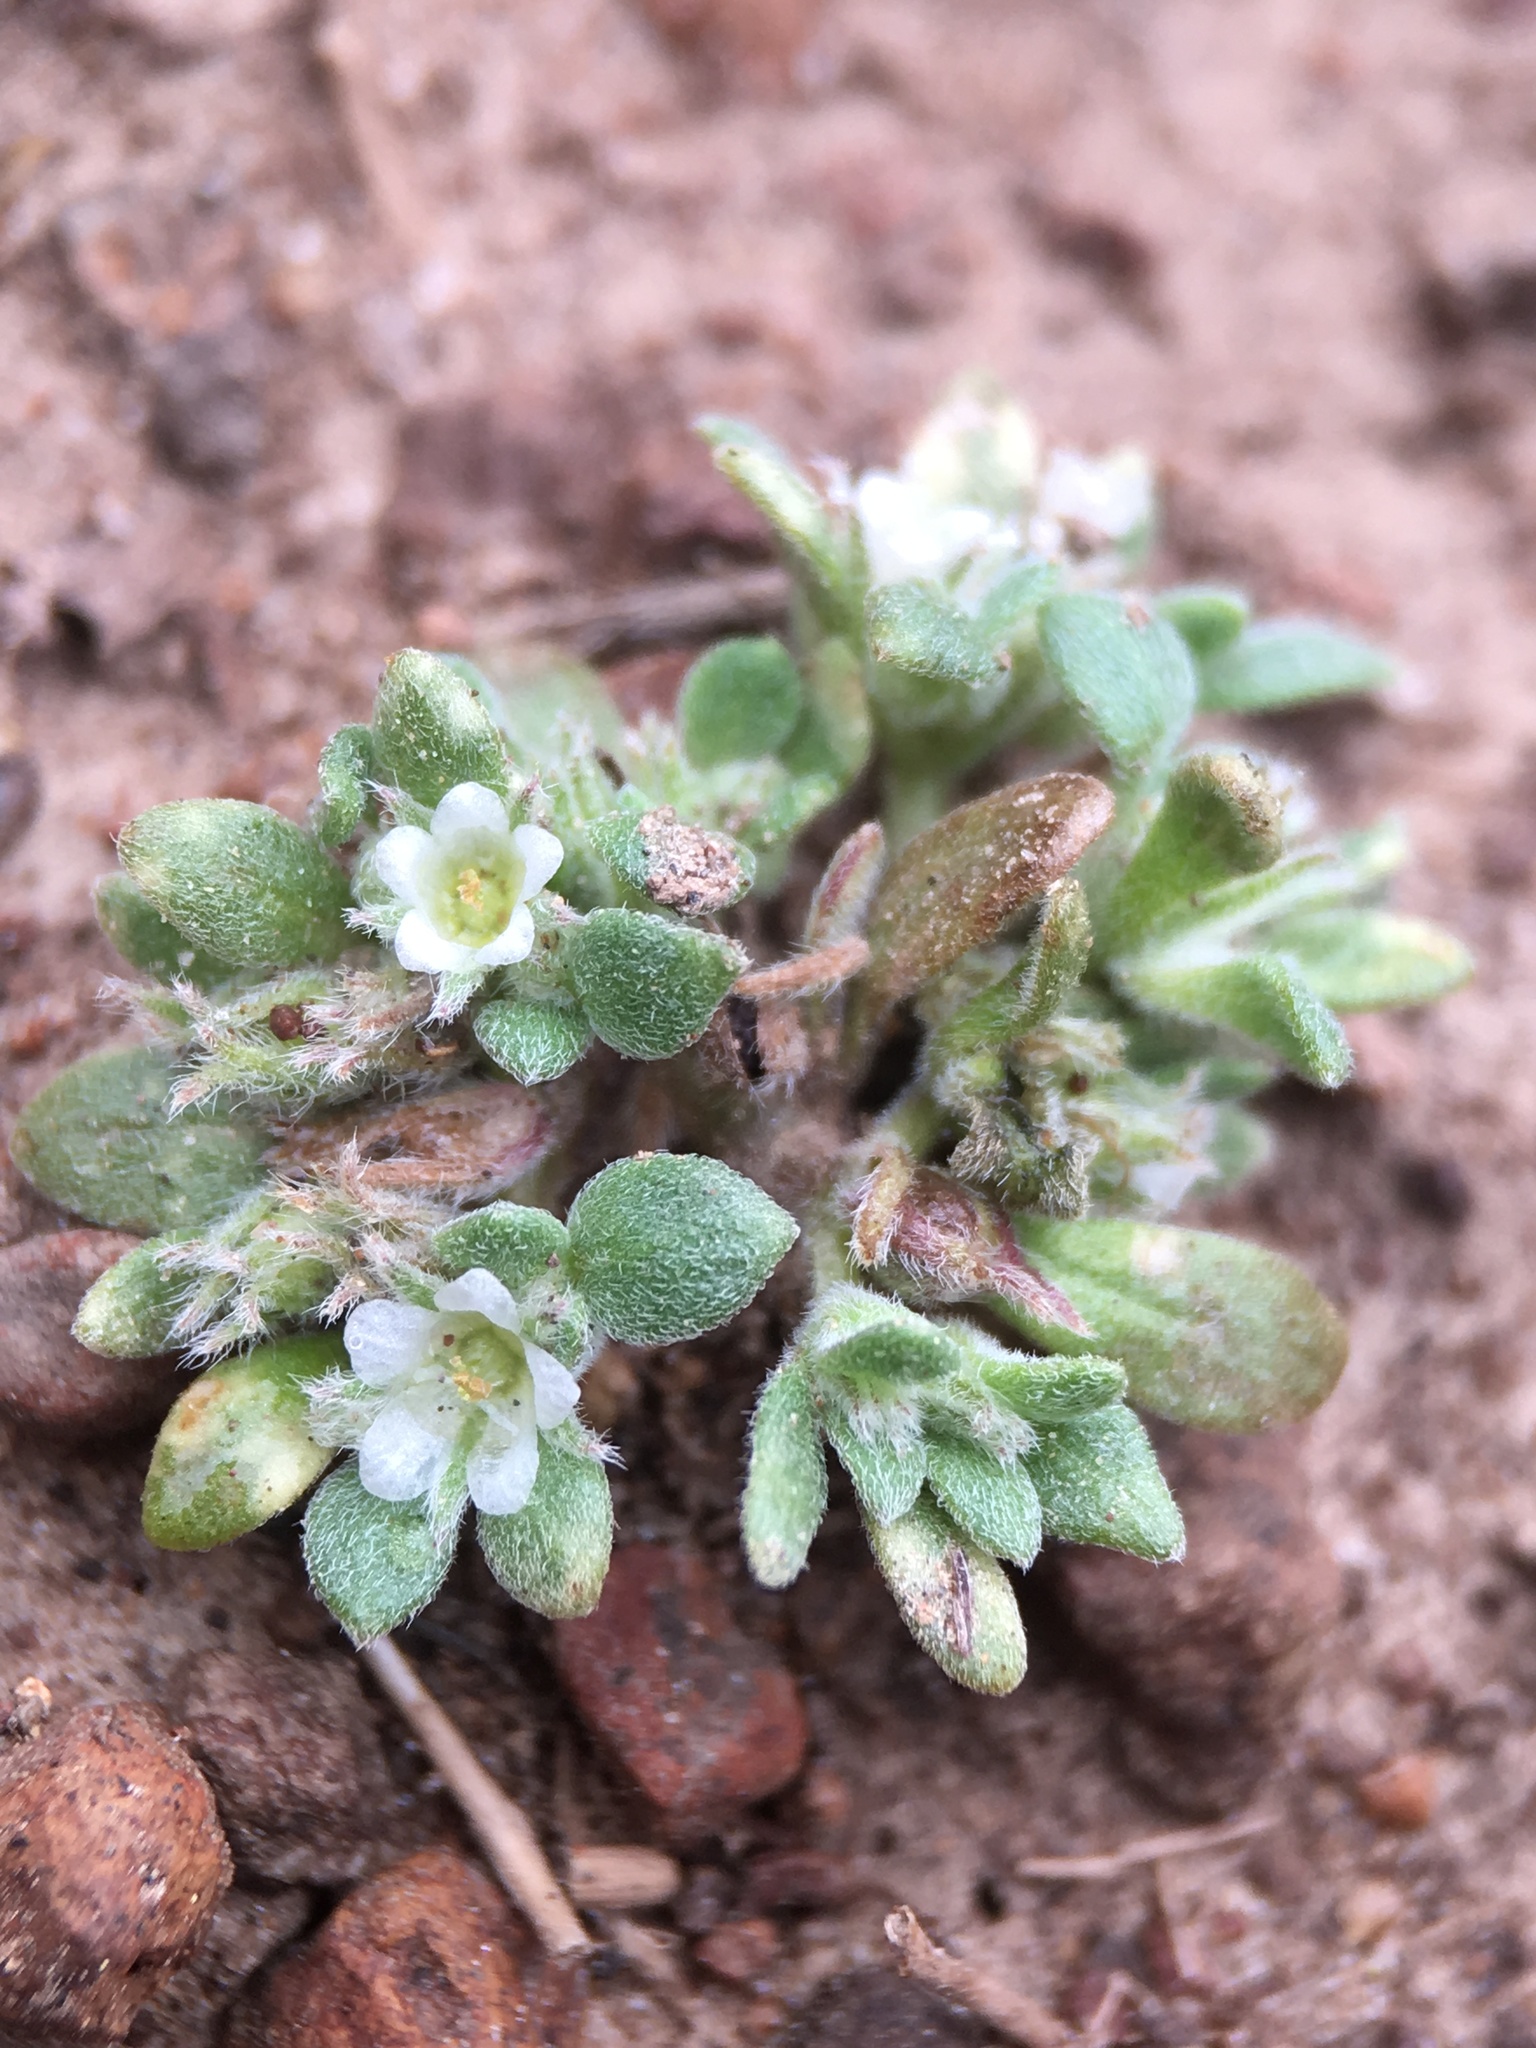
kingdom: Plantae
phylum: Tracheophyta
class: Magnoliopsida
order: Boraginales
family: Namaceae
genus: Nama
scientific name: Nama californicum
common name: California fiddleleaf
